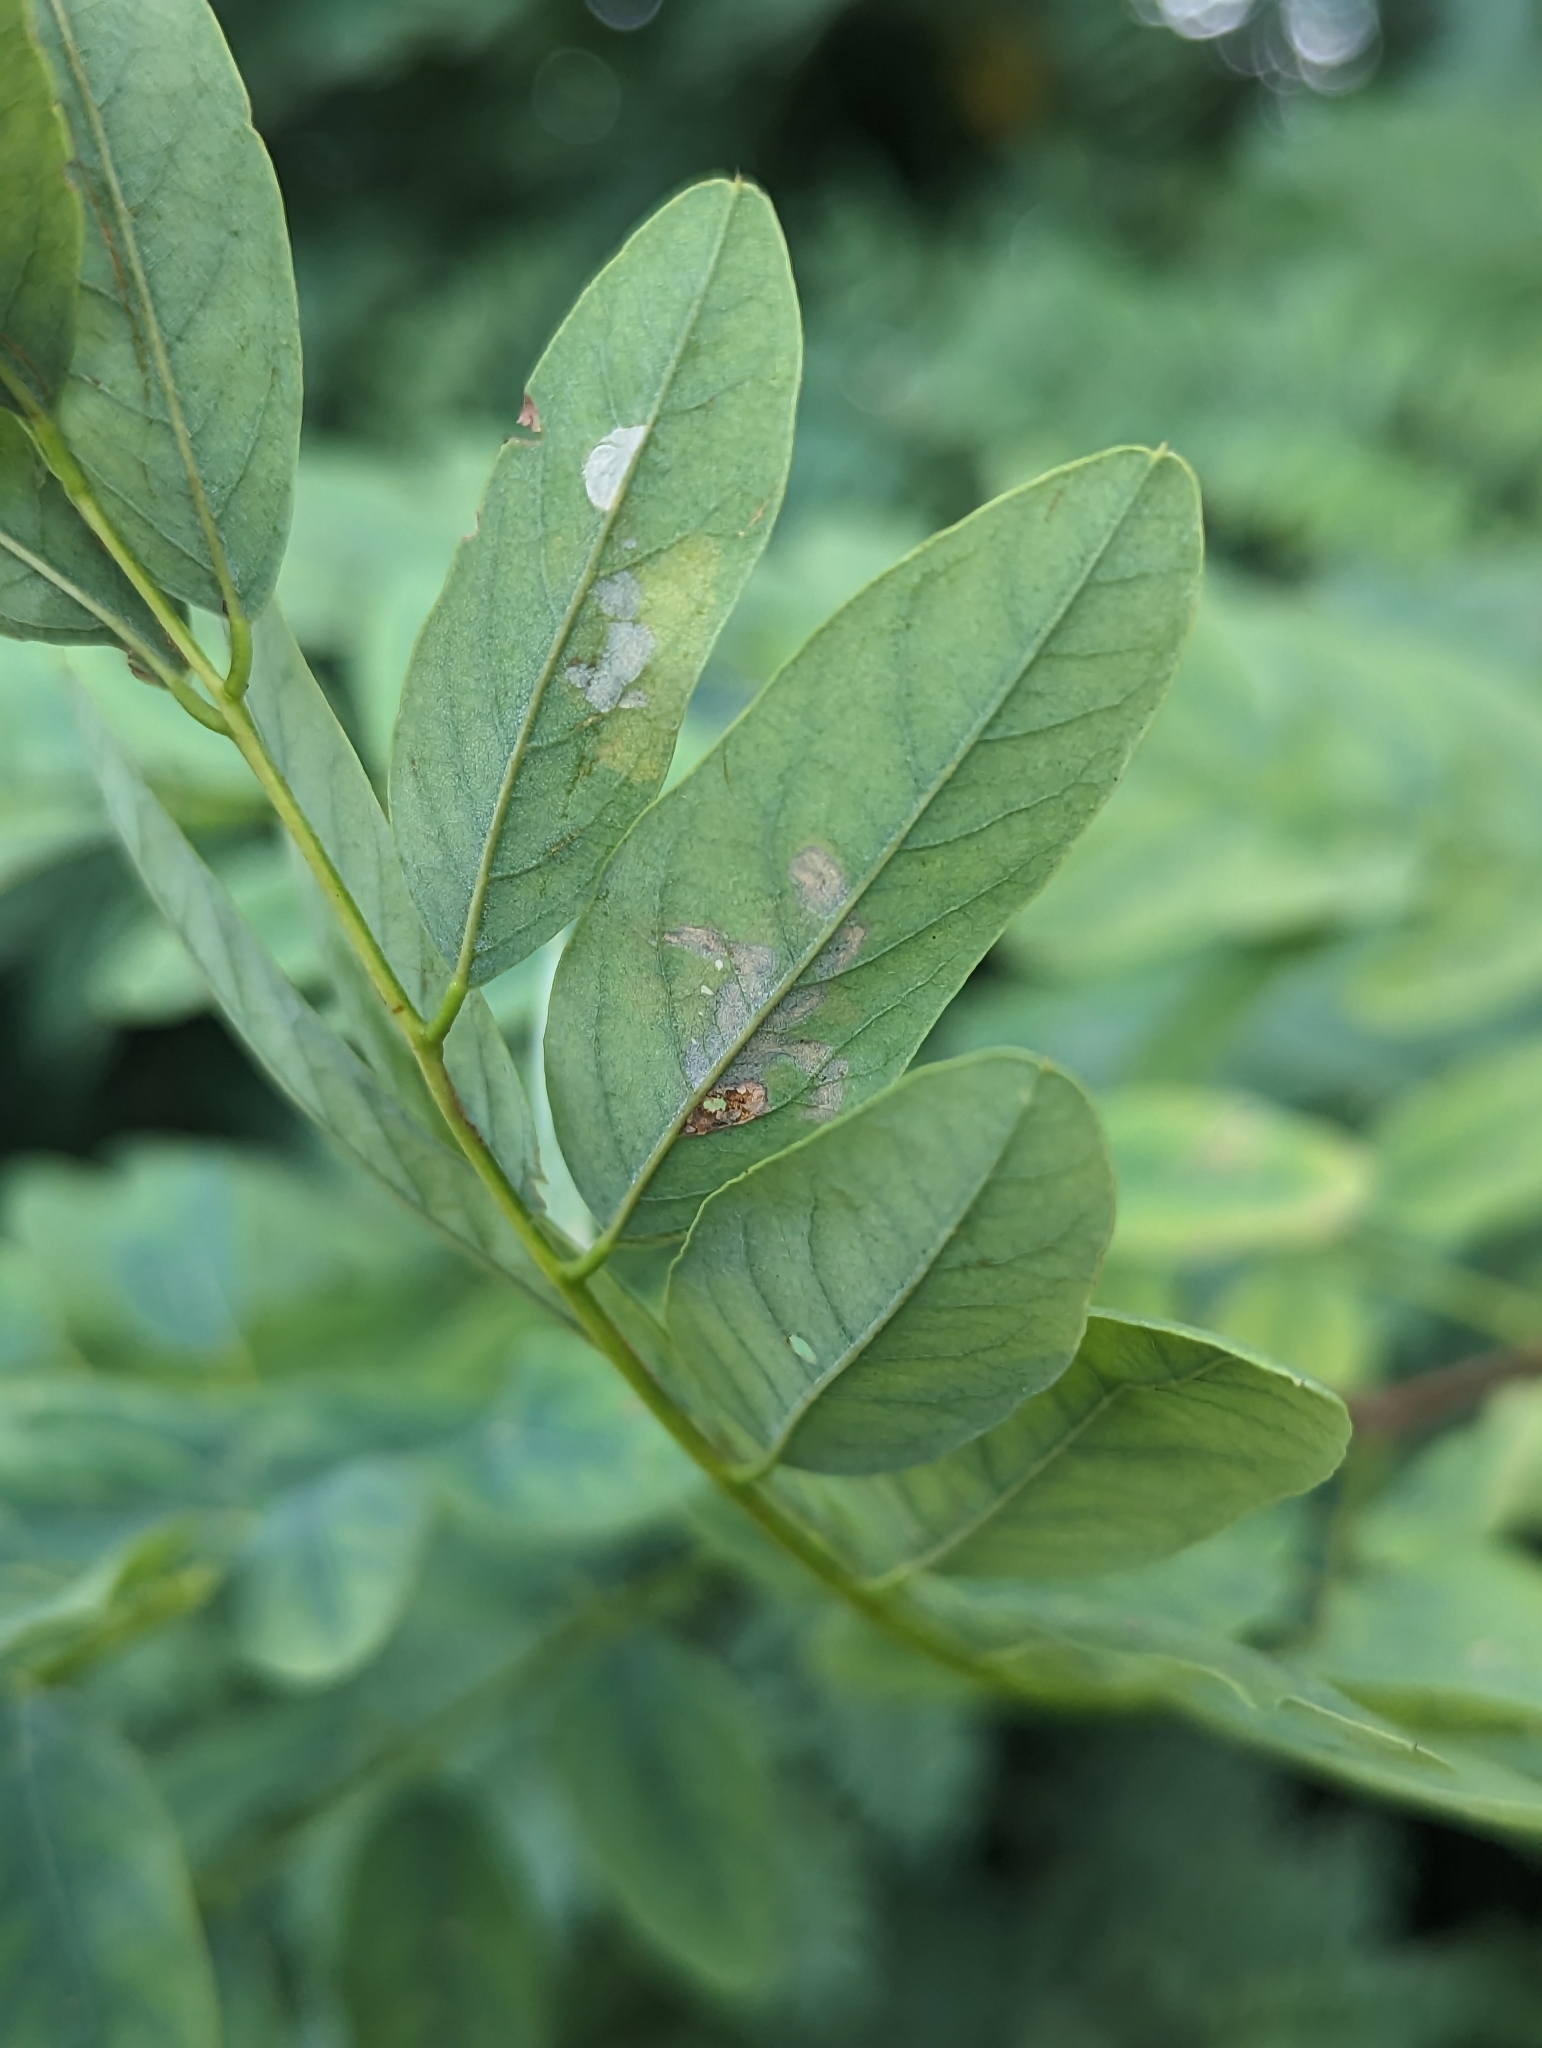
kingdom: Animalia
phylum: Arthropoda
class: Insecta
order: Lepidoptera
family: Gracillariidae
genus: Parectopa
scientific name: Parectopa robiniella
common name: Locust digitate leafminer
